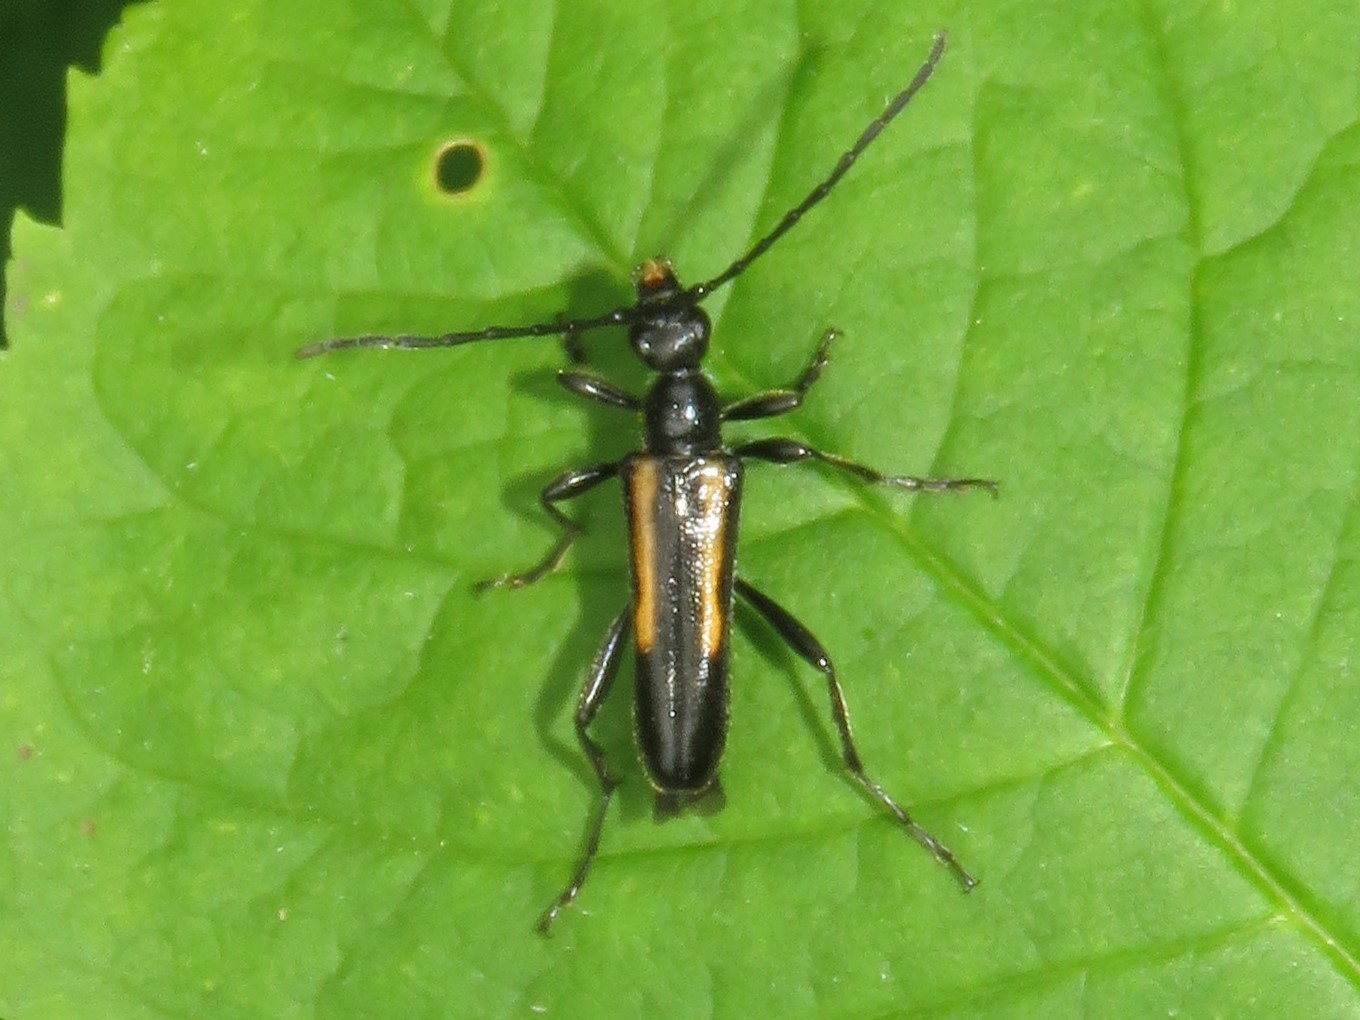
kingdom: Animalia
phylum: Arthropoda
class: Insecta
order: Coleoptera
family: Cerambycidae
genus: Strangalepta
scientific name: Strangalepta abbreviata
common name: Strangalepta flower longhorn beetle
